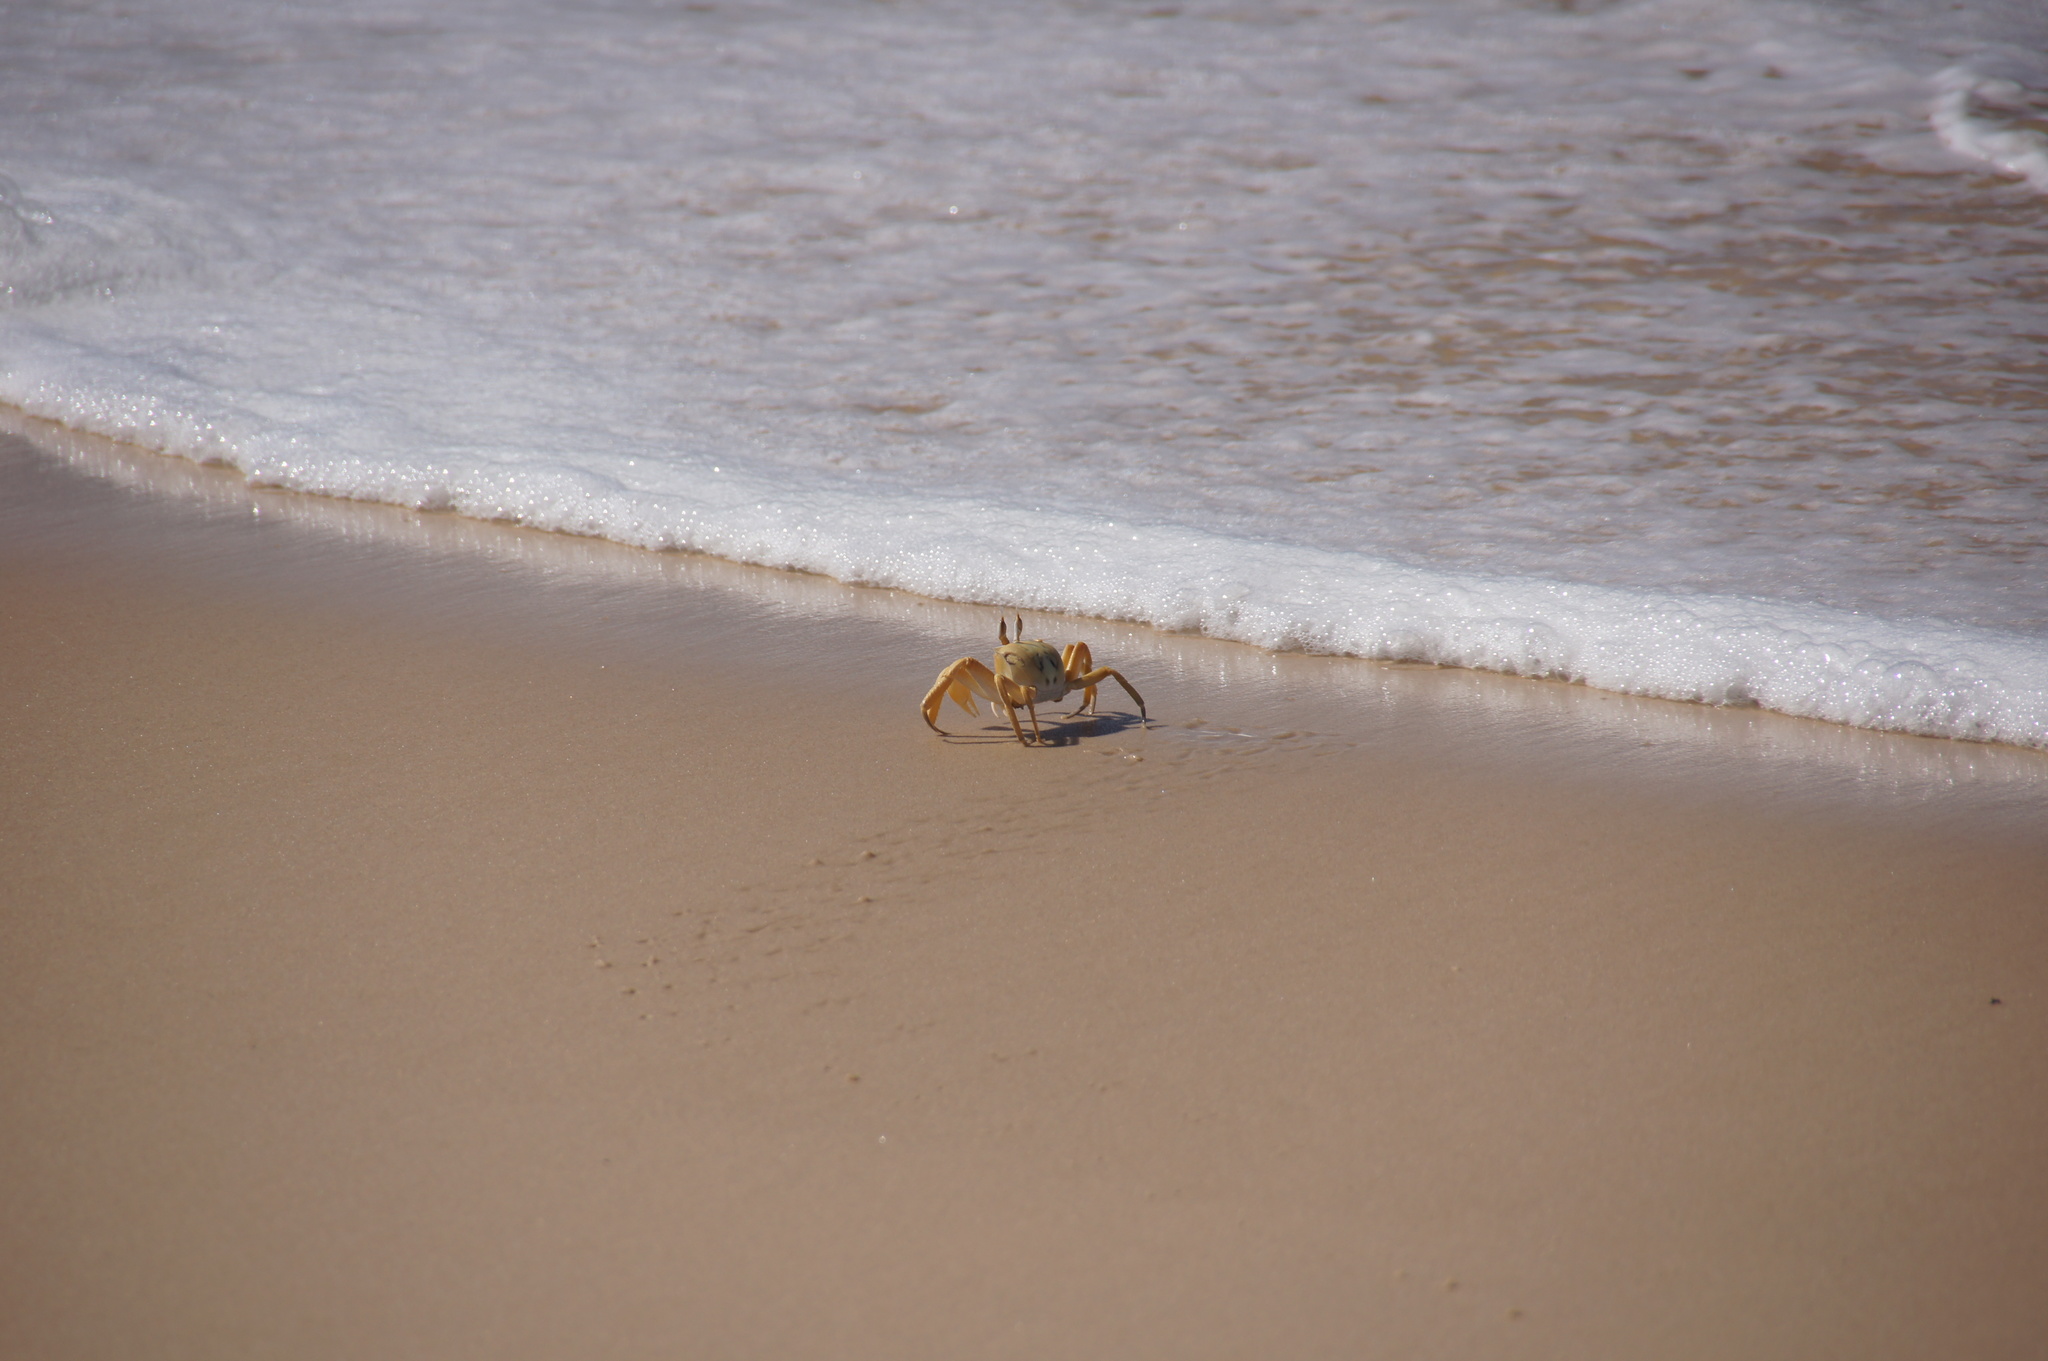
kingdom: Animalia
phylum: Arthropoda
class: Malacostraca
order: Decapoda
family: Ocypodidae
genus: Ocypode
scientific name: Ocypode cursor
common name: Tufted ghost crab
